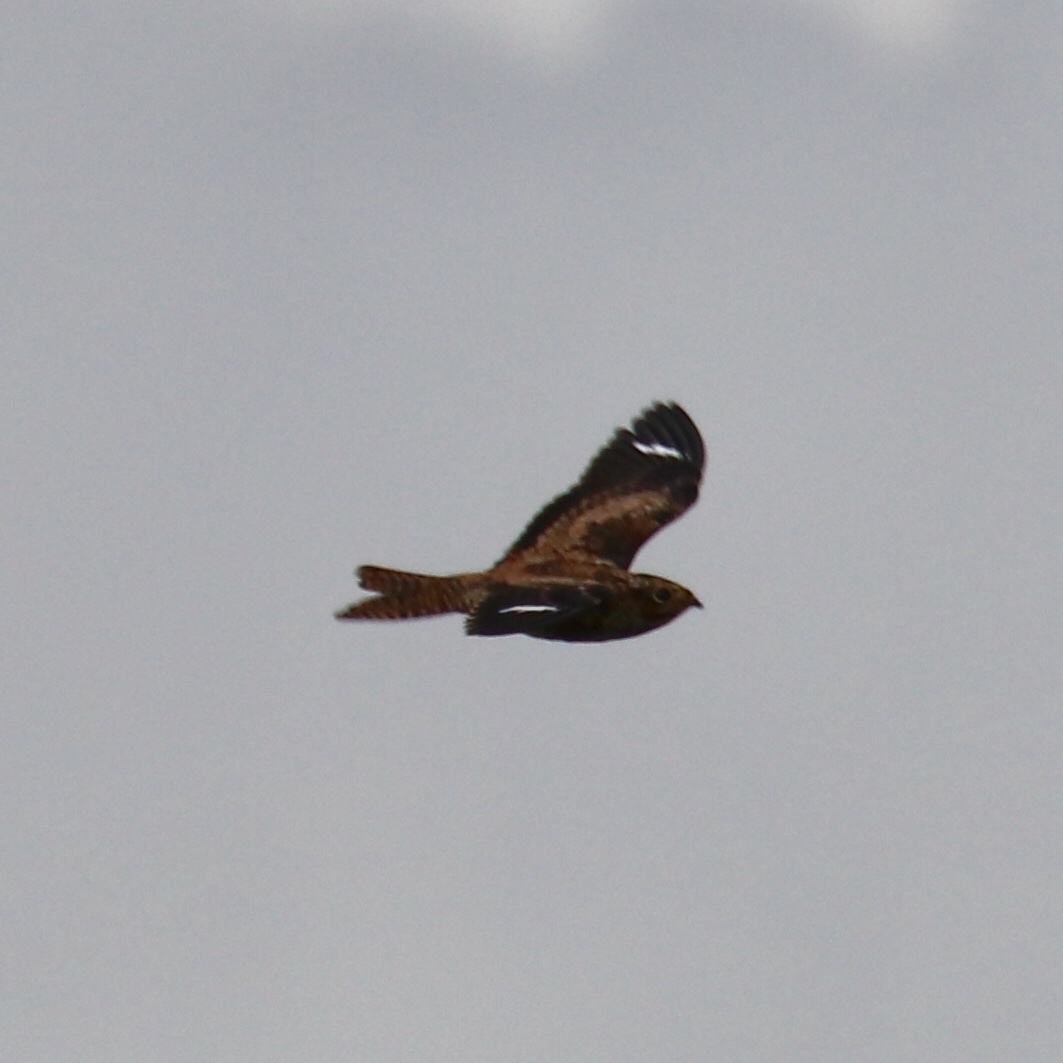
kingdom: Animalia
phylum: Chordata
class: Aves
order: Caprimulgiformes
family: Caprimulgidae
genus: Chordeiles
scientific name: Chordeiles gundlachii
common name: Antillean nighthawk
